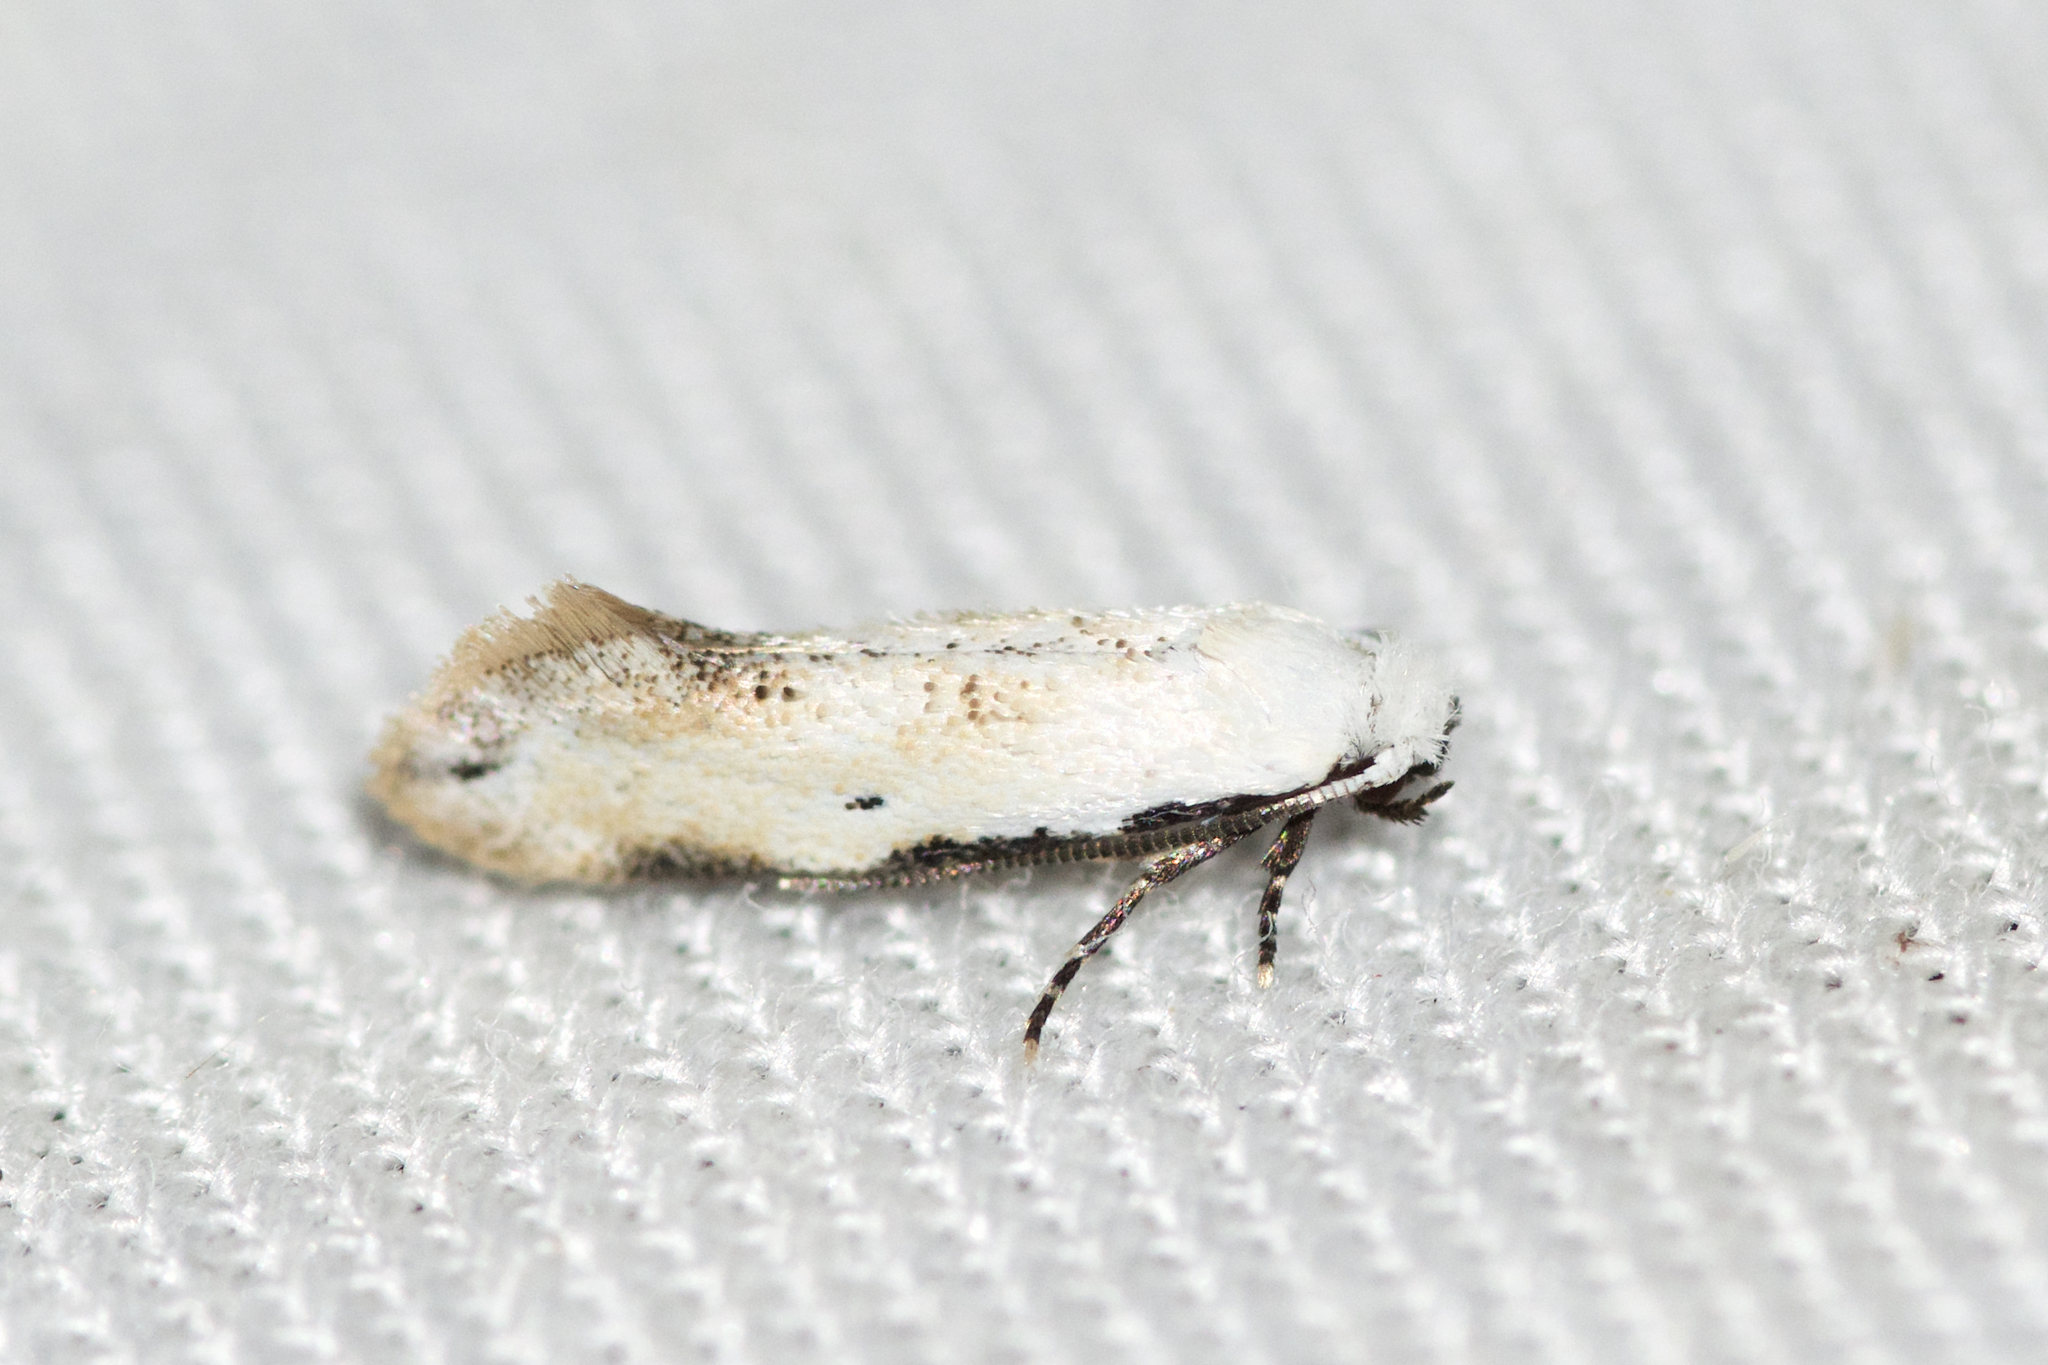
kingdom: Animalia
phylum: Arthropoda
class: Insecta
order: Lepidoptera
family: Meessiidae
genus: Mea
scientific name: Mea skinnerella
